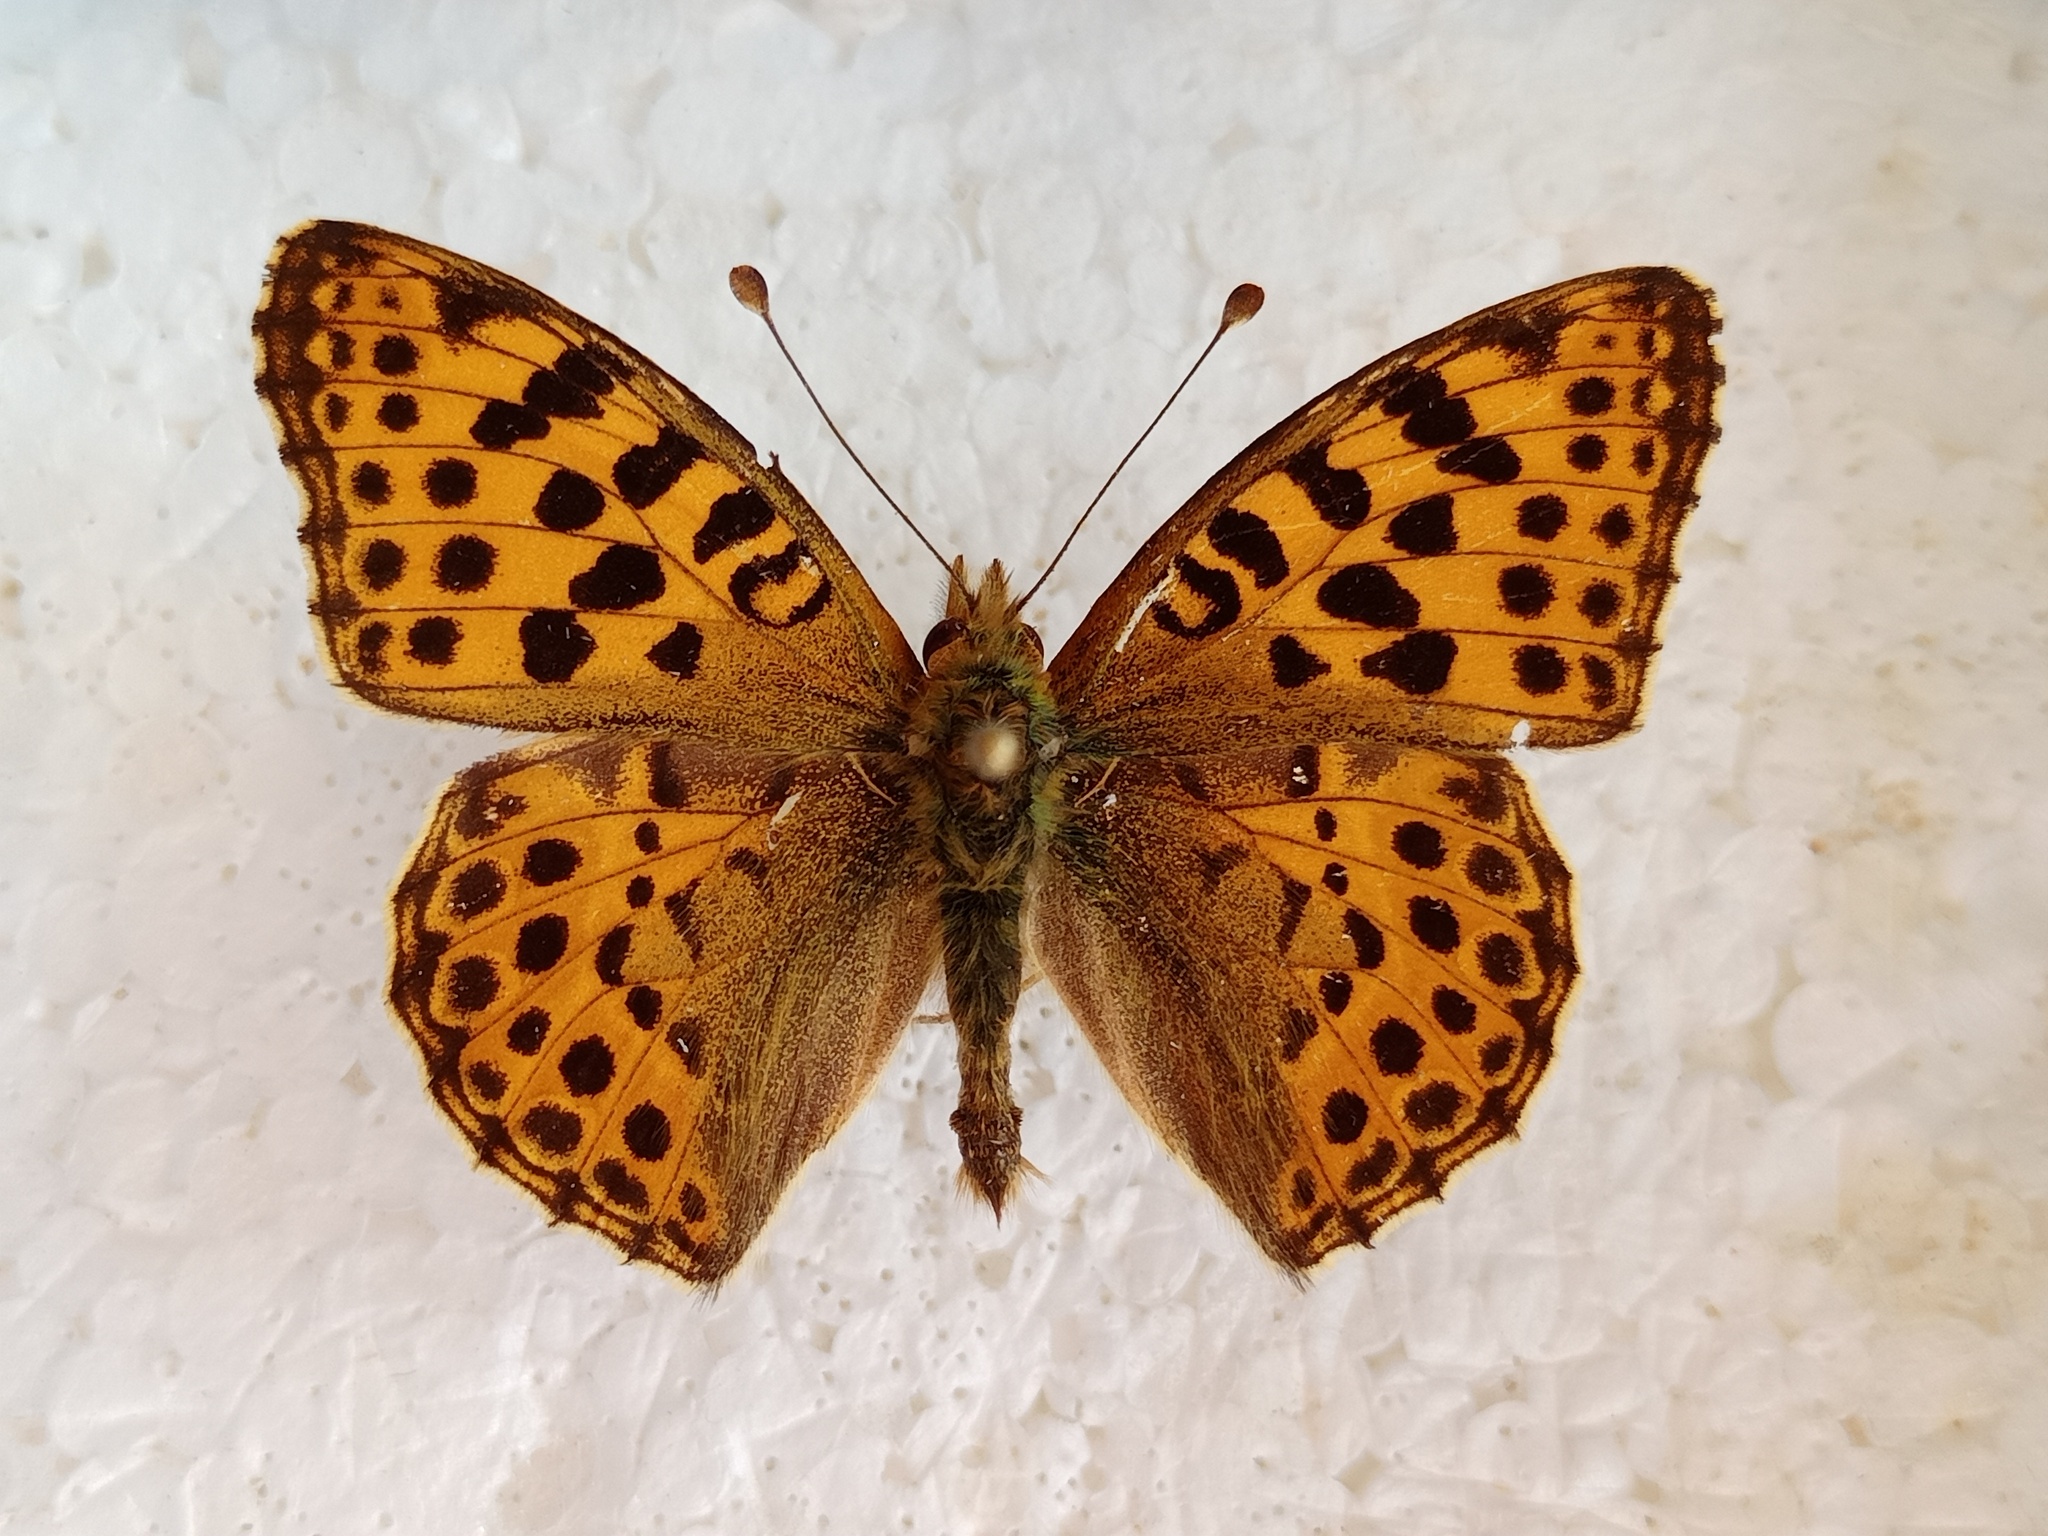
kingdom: Animalia
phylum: Arthropoda
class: Insecta
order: Lepidoptera
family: Nymphalidae
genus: Issoria
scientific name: Issoria lathonia
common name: Queen of spain fritillary
